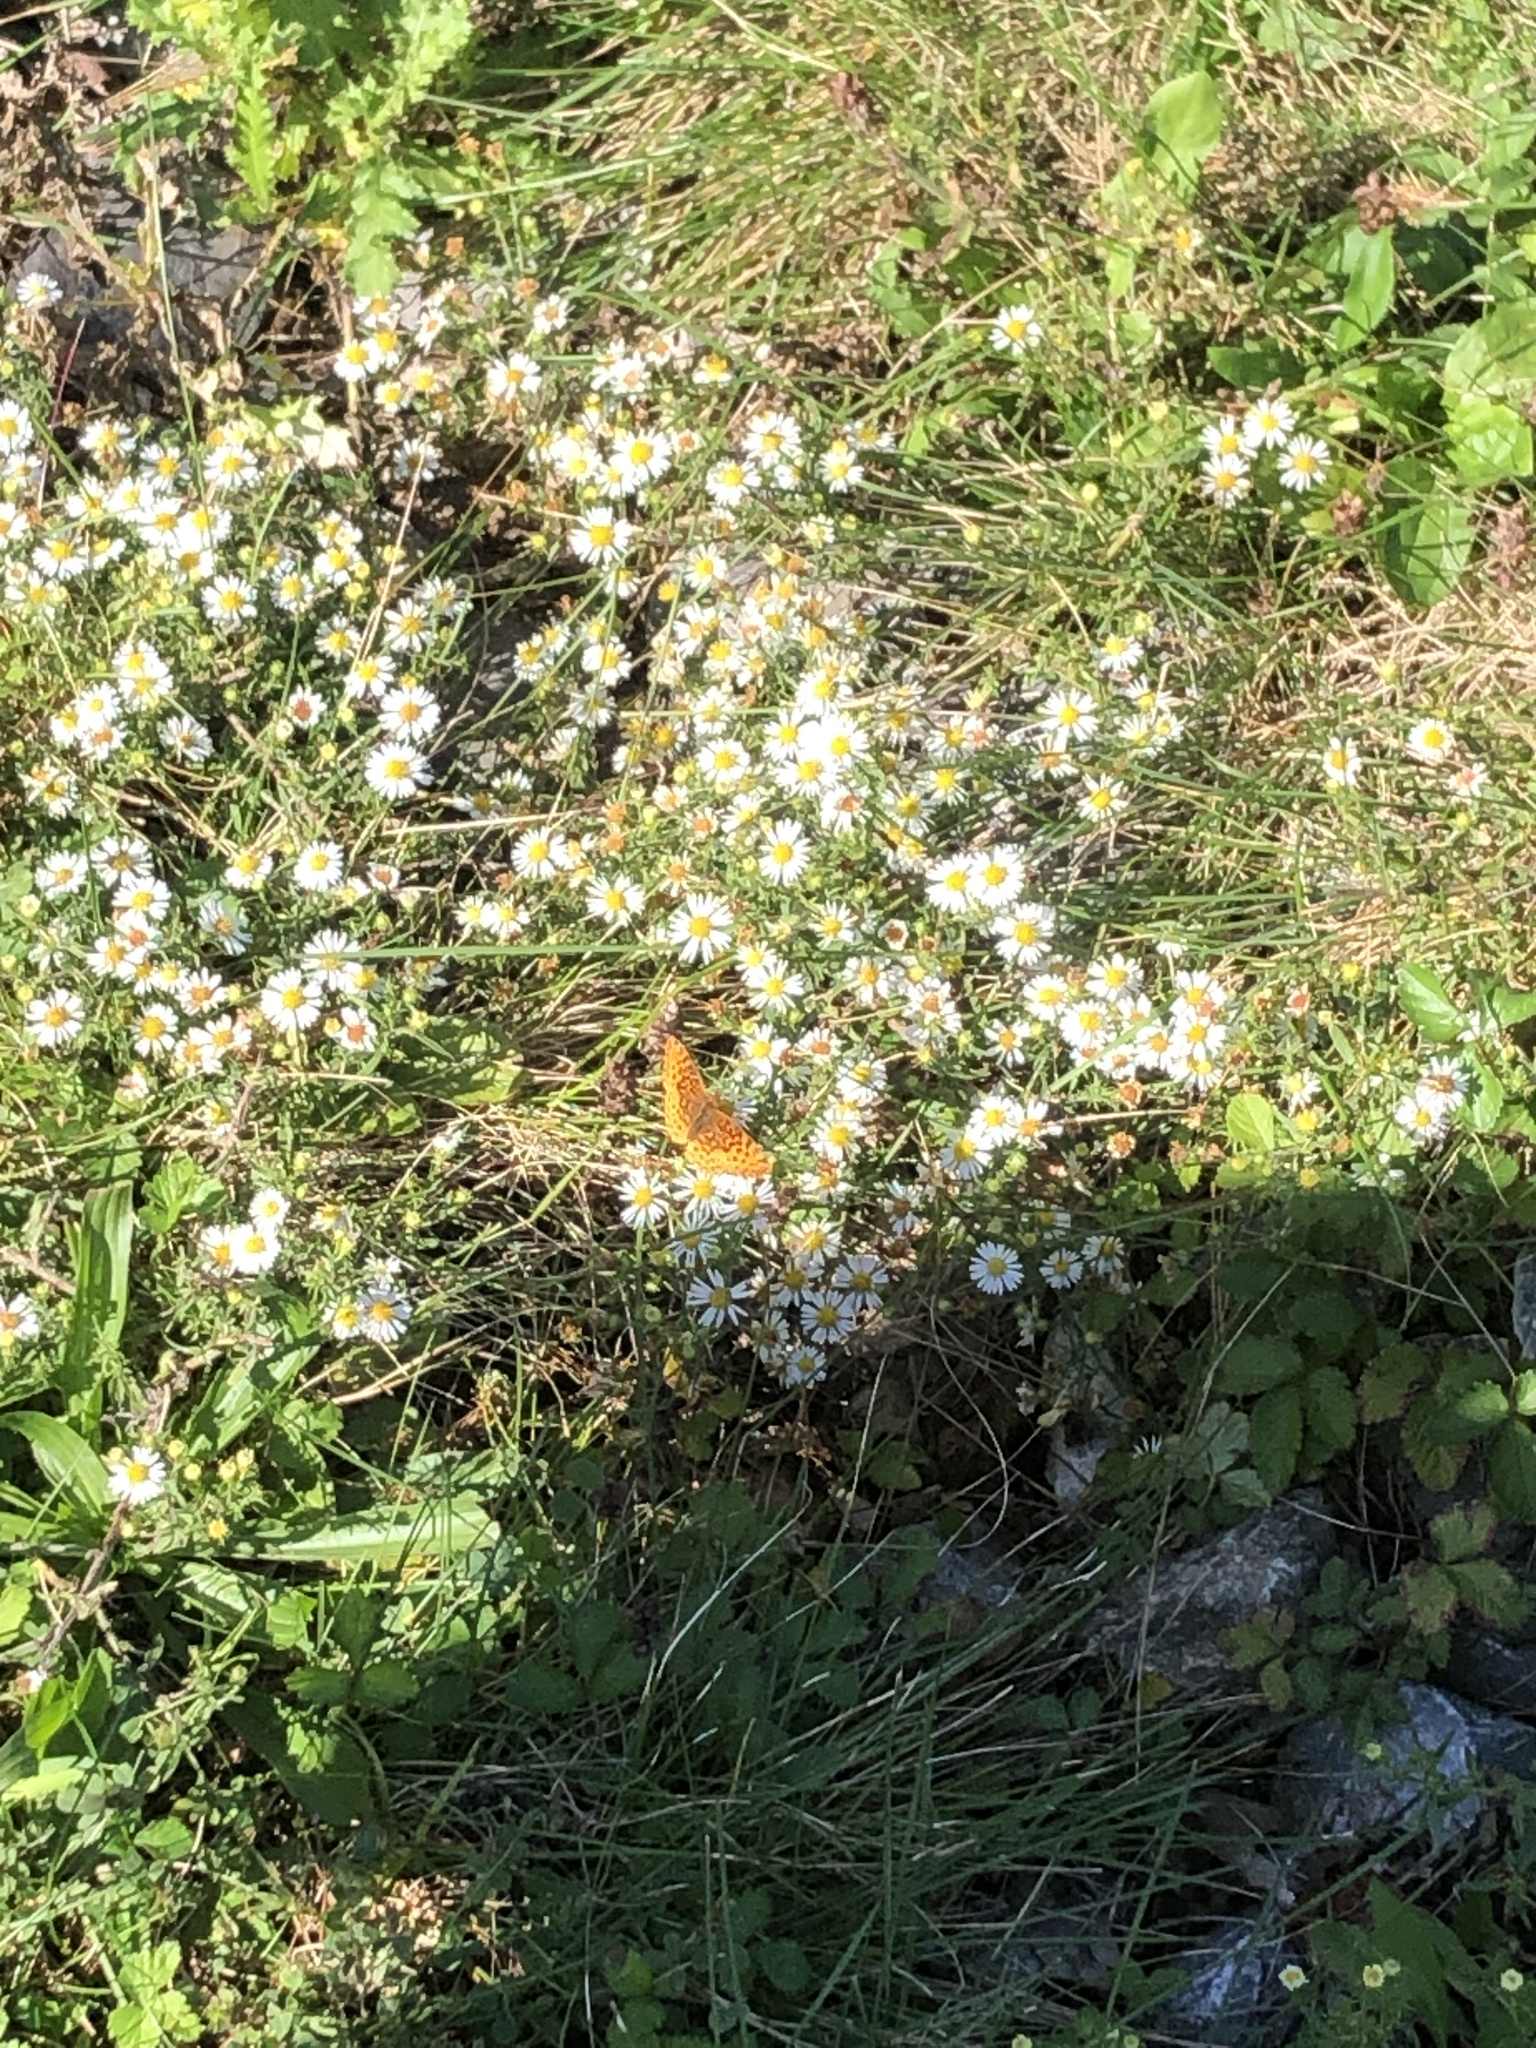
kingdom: Animalia
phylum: Arthropoda
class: Insecta
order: Lepidoptera
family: Nymphalidae
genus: Clossiana
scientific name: Clossiana toddi
